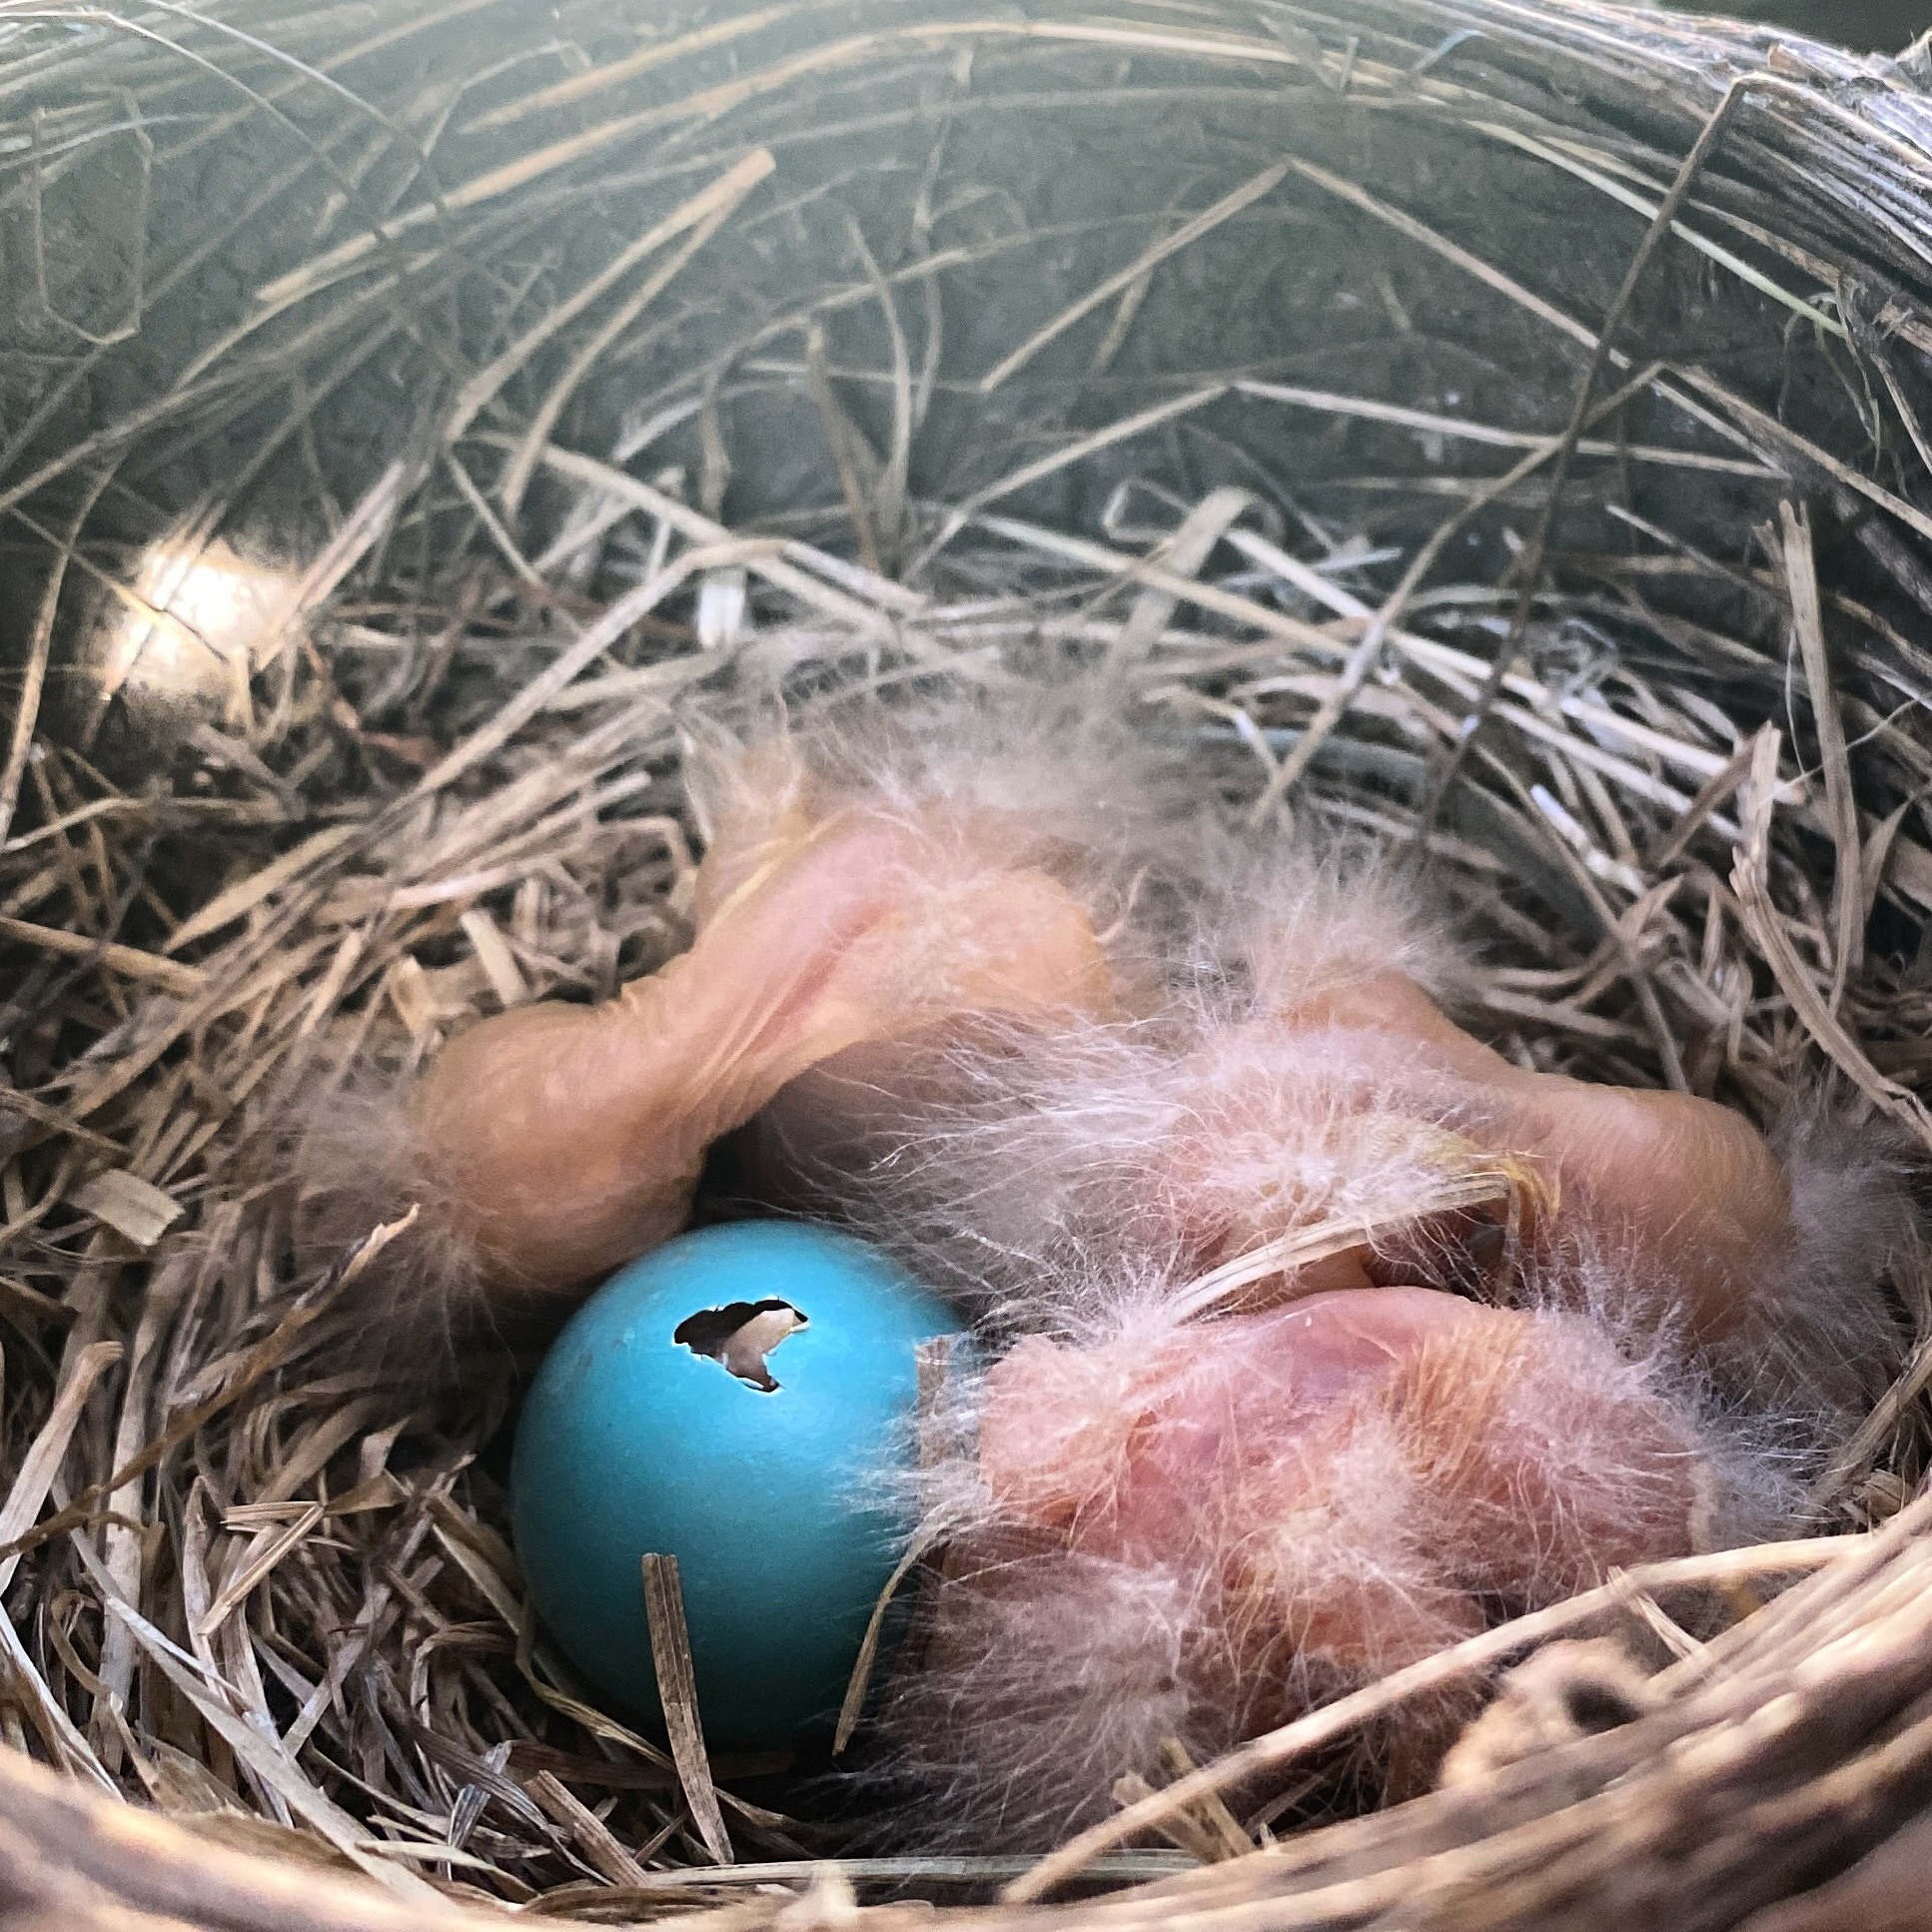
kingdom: Animalia
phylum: Chordata
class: Aves
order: Passeriformes
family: Turdidae
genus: Turdus
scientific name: Turdus migratorius
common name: American robin
